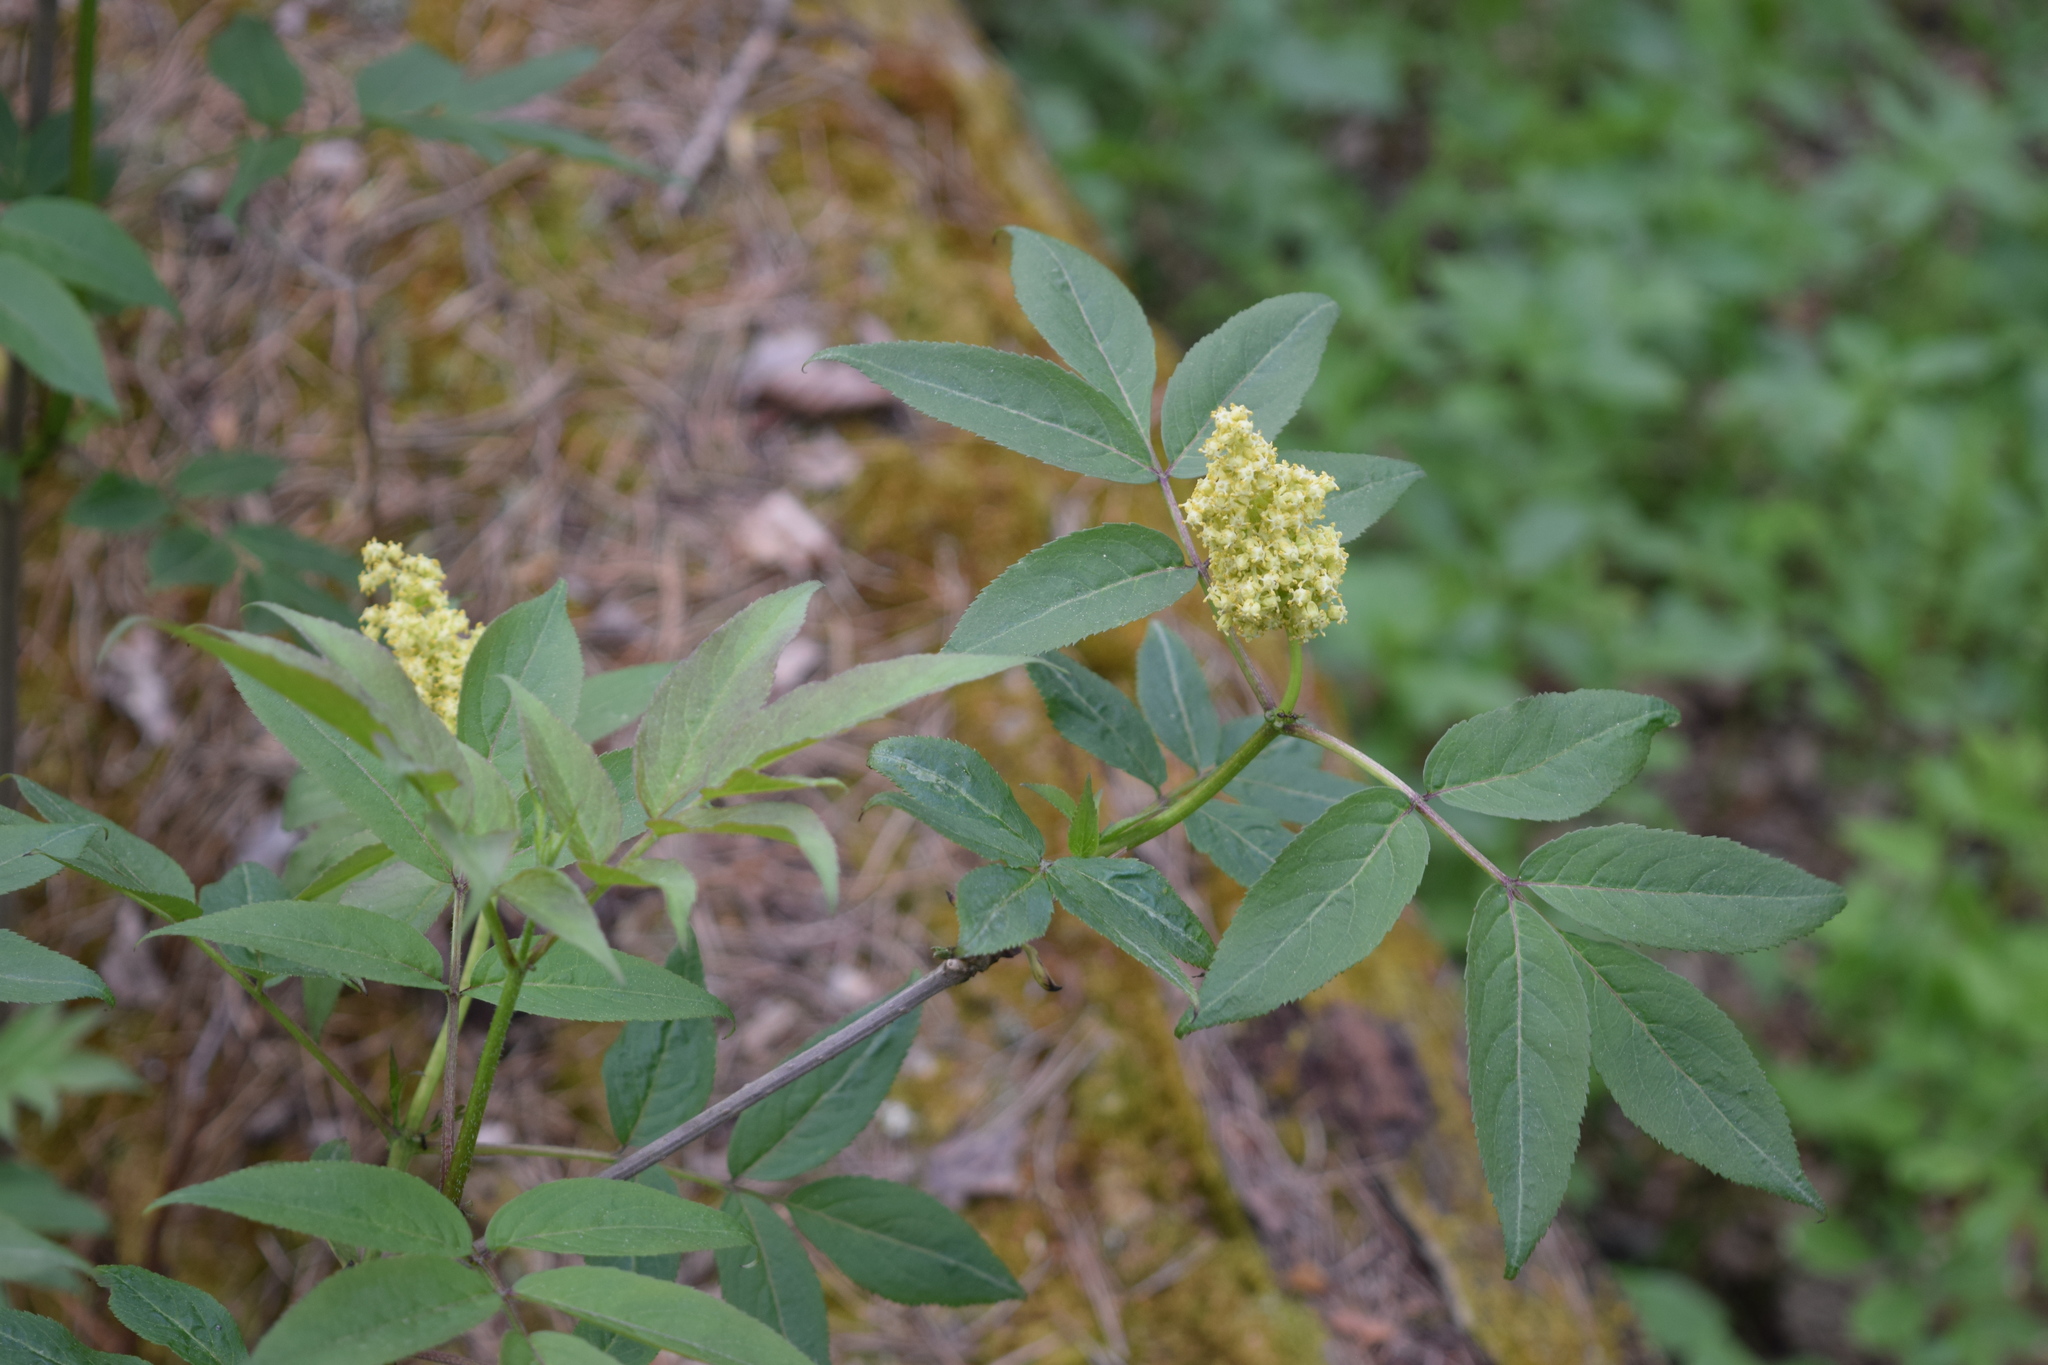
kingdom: Plantae
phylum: Tracheophyta
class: Magnoliopsida
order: Dipsacales
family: Viburnaceae
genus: Sambucus
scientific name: Sambucus racemosa
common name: Red-berried elder
